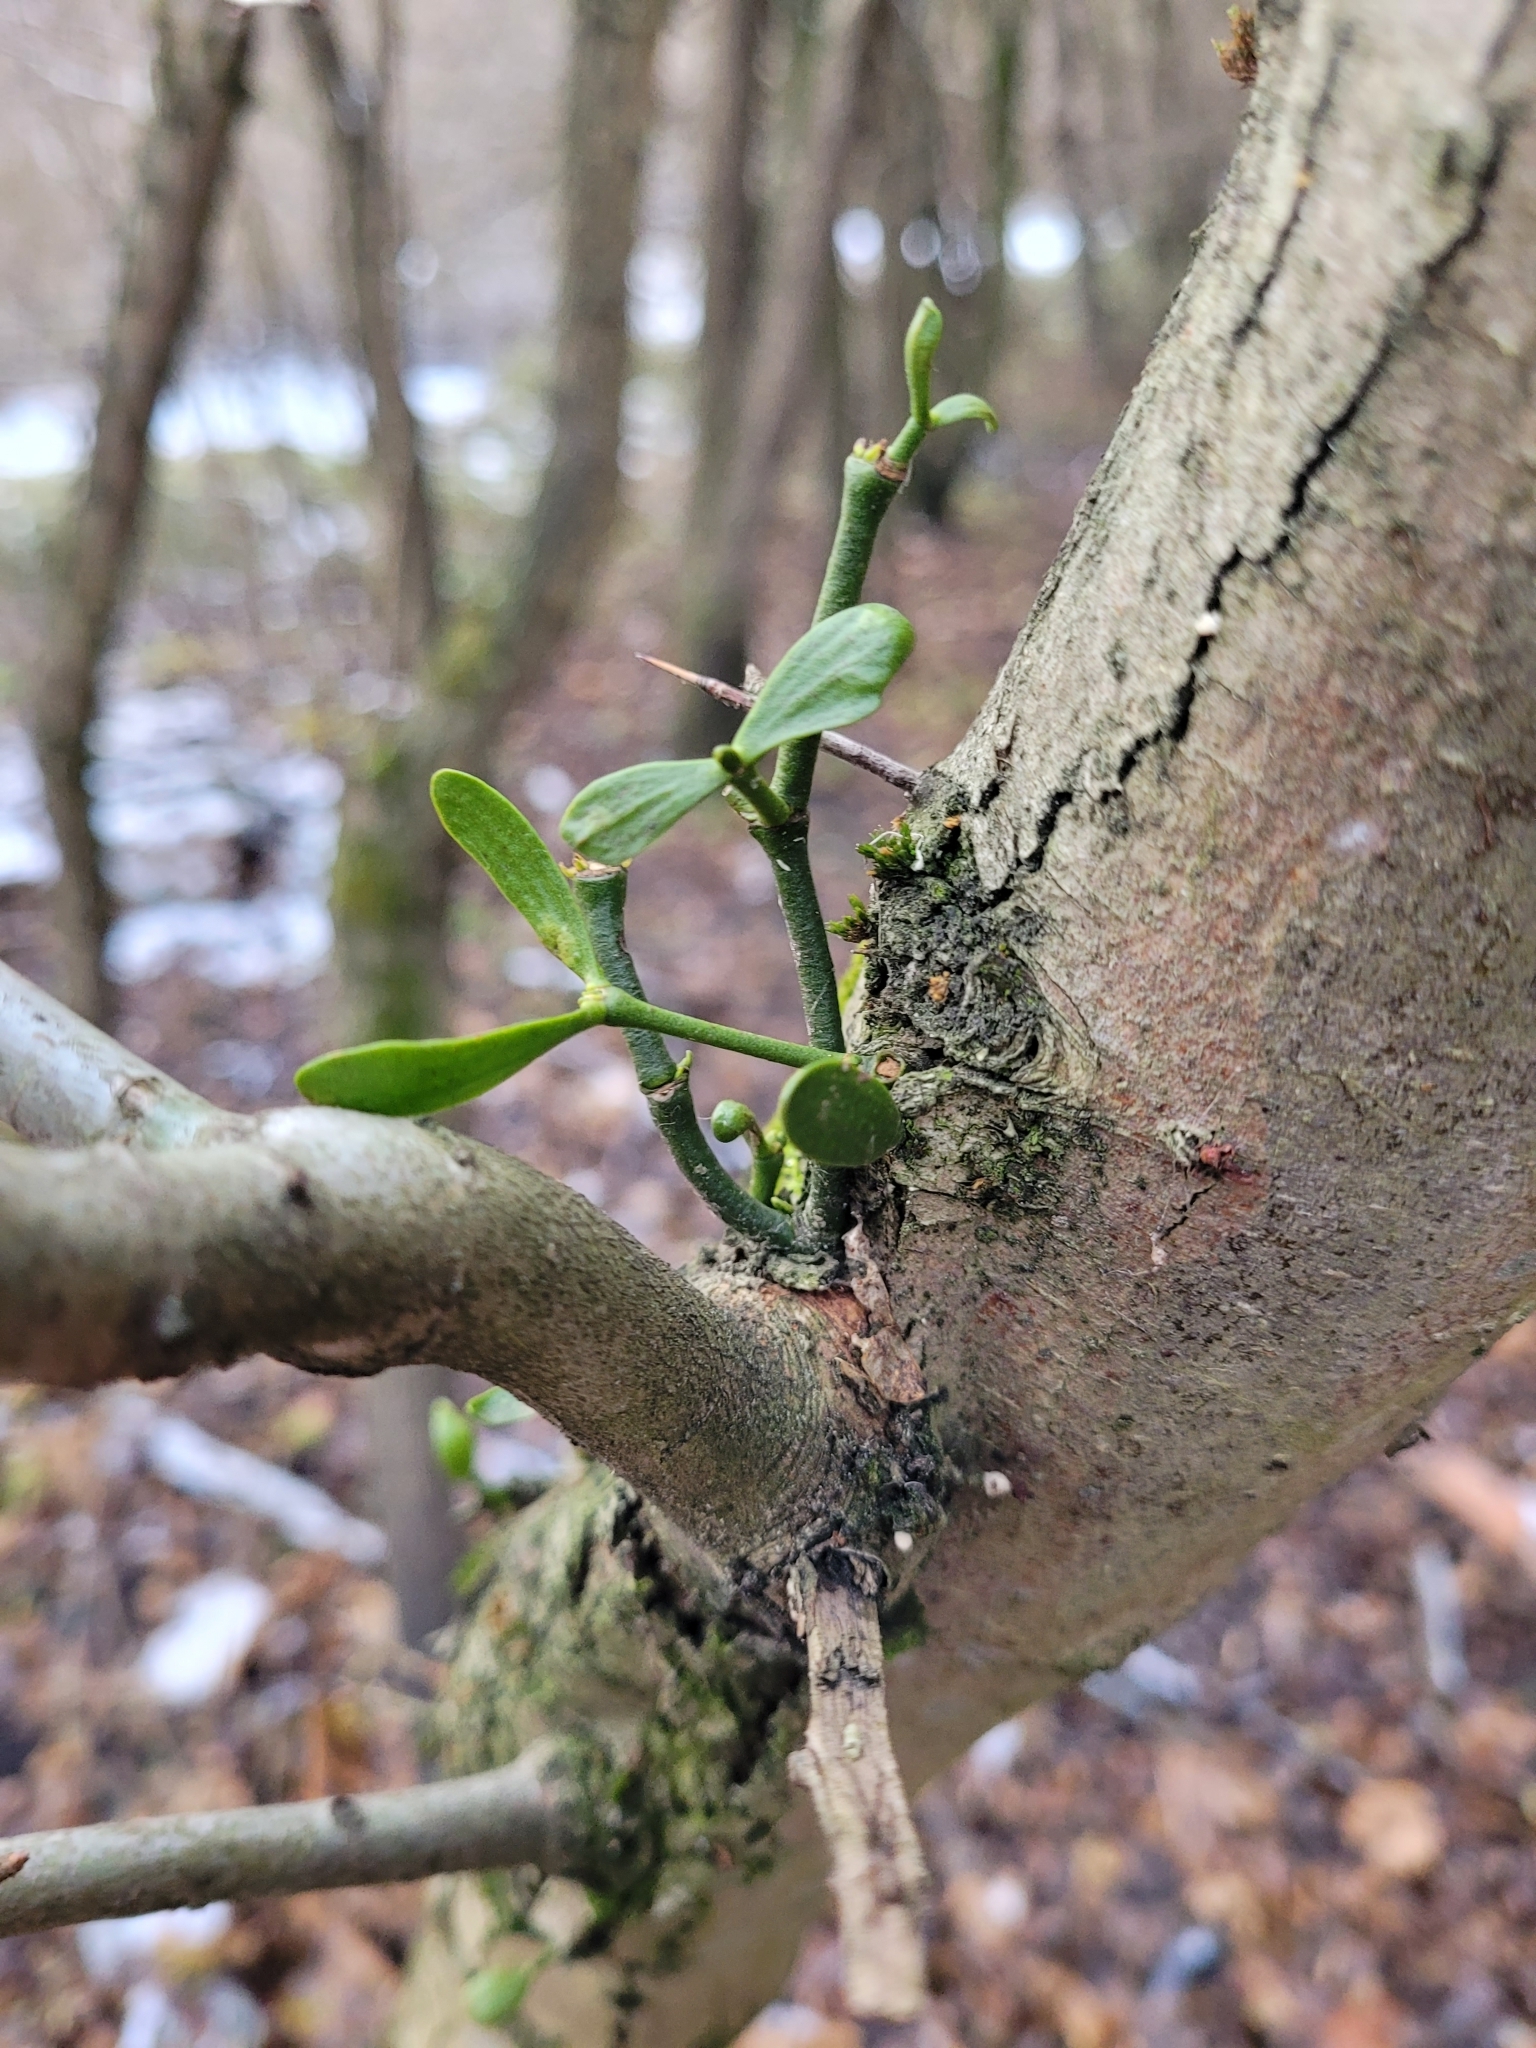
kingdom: Plantae
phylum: Tracheophyta
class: Magnoliopsida
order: Santalales
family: Viscaceae
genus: Viscum
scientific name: Viscum album
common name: Mistletoe
